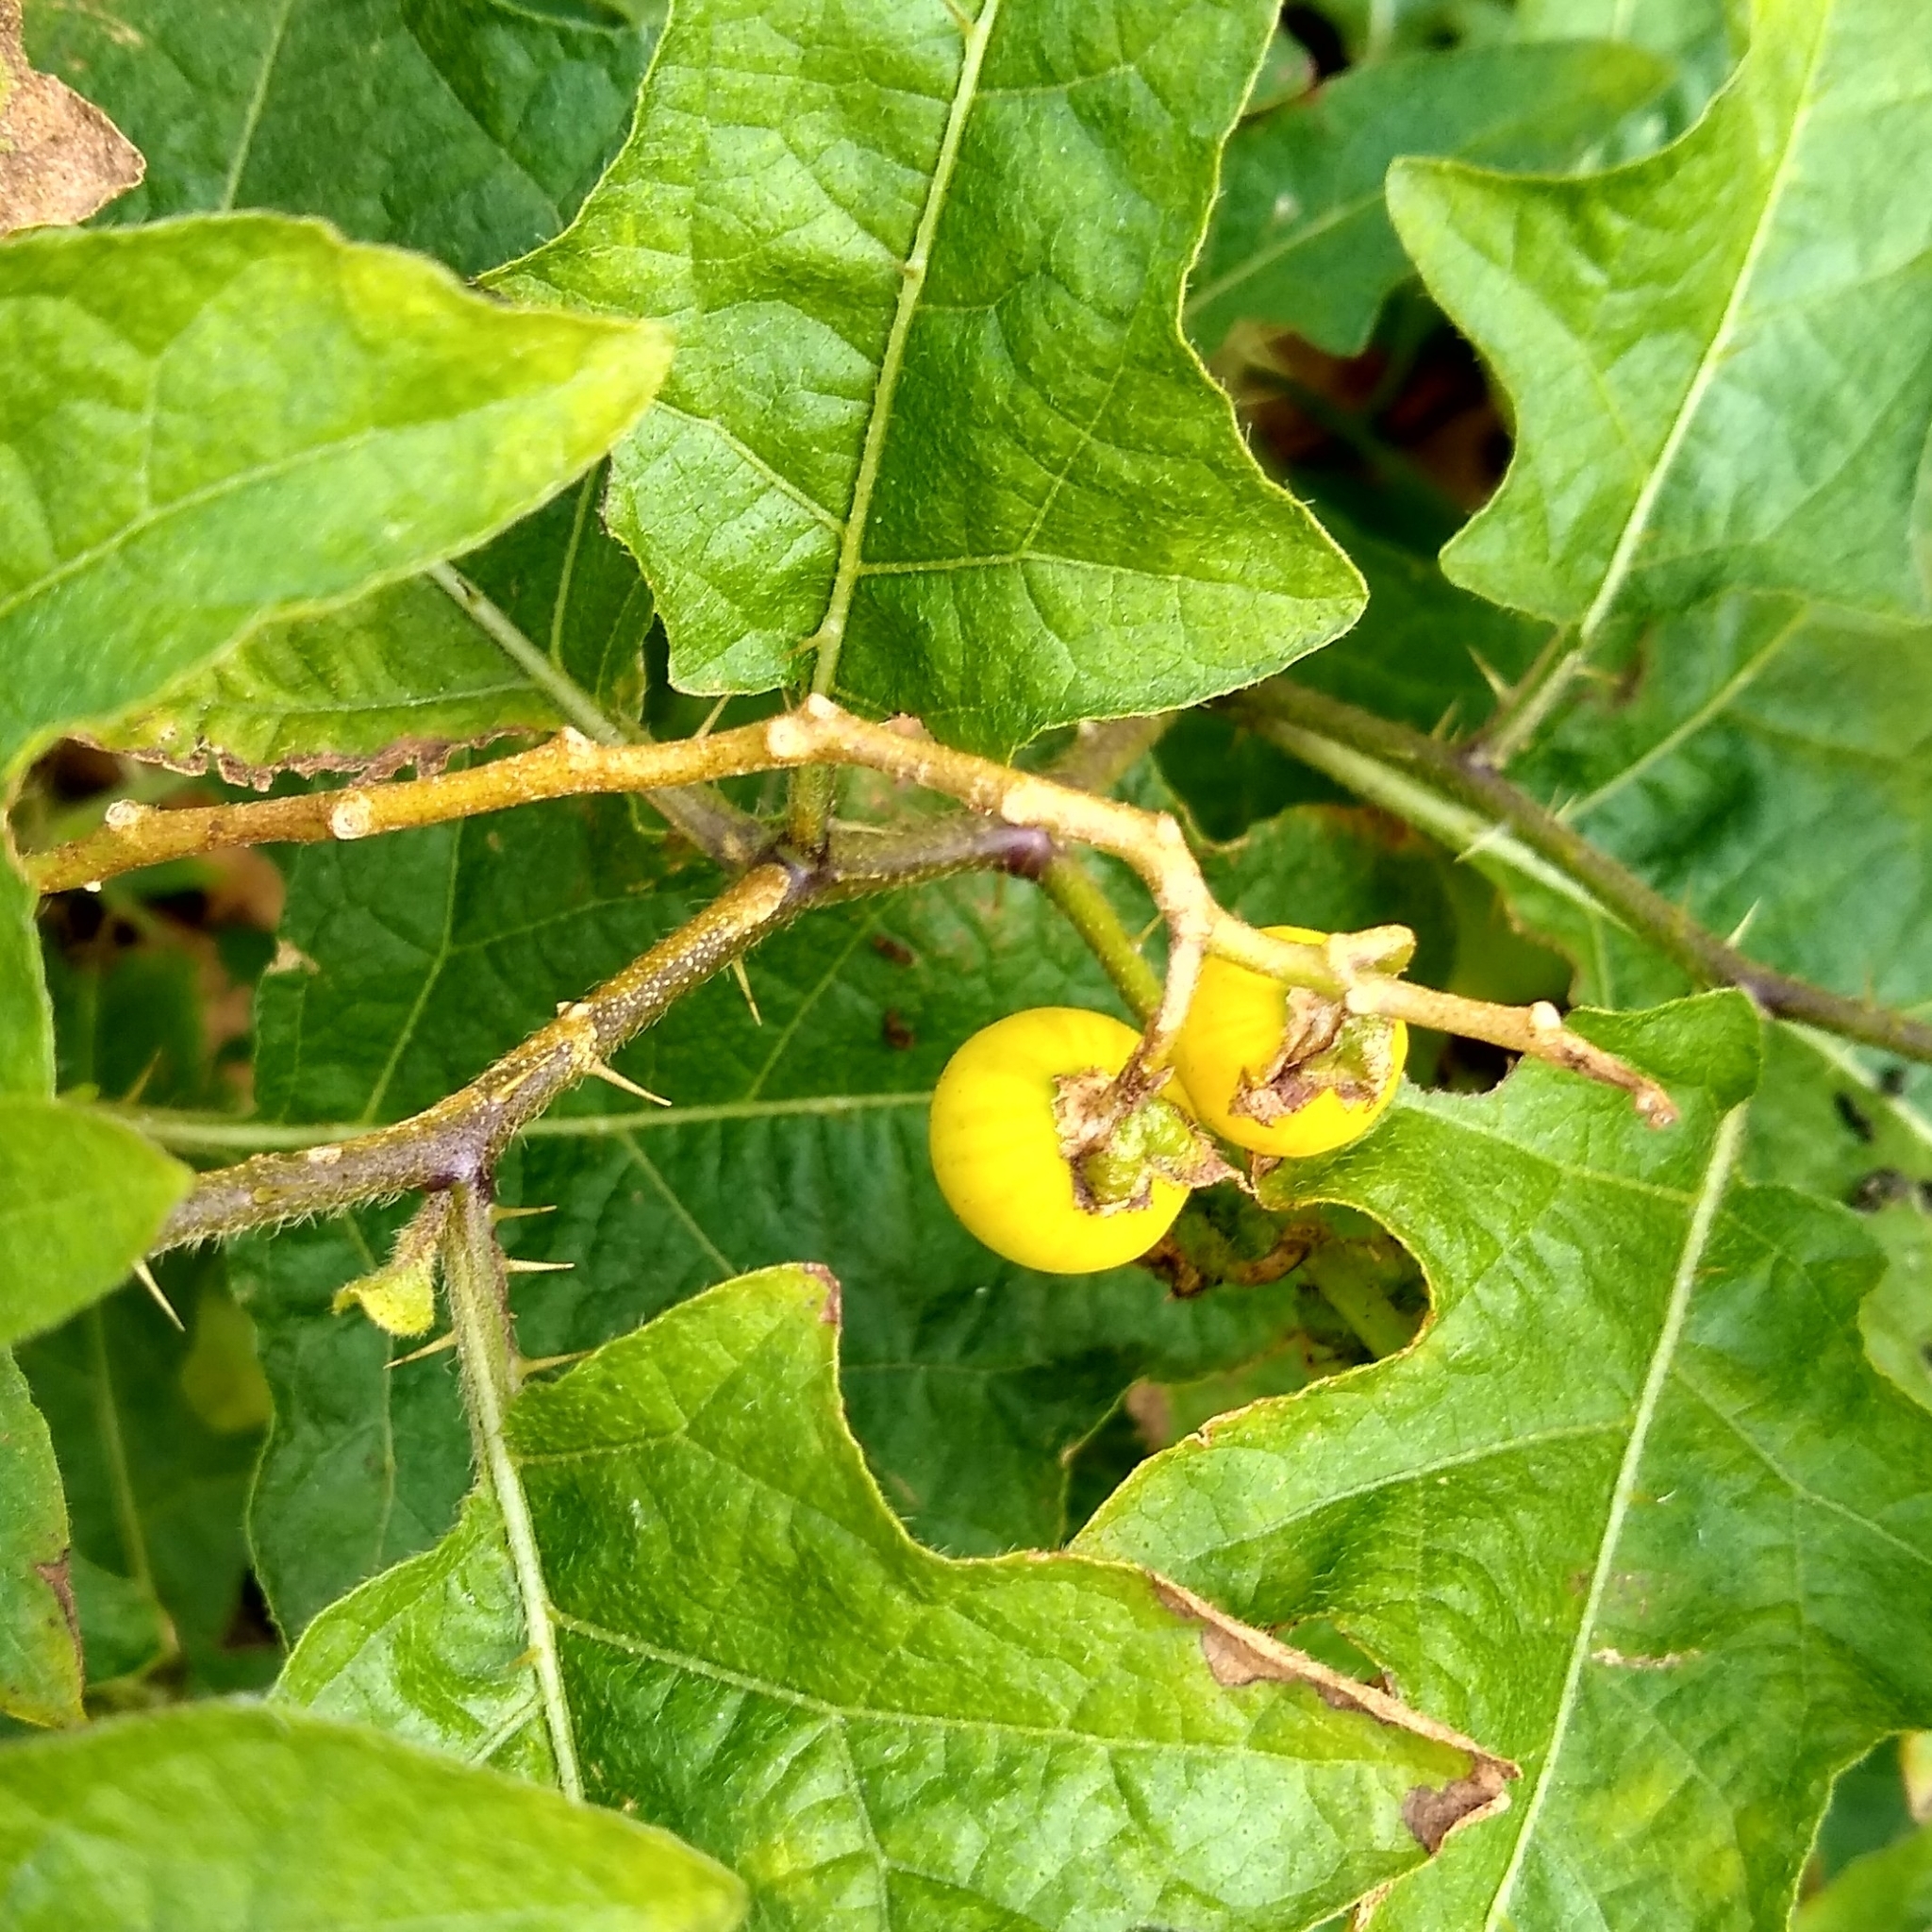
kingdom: Plantae
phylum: Tracheophyta
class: Magnoliopsida
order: Solanales
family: Solanaceae
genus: Solanum
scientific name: Solanum carolinense
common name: Horse-nettle
